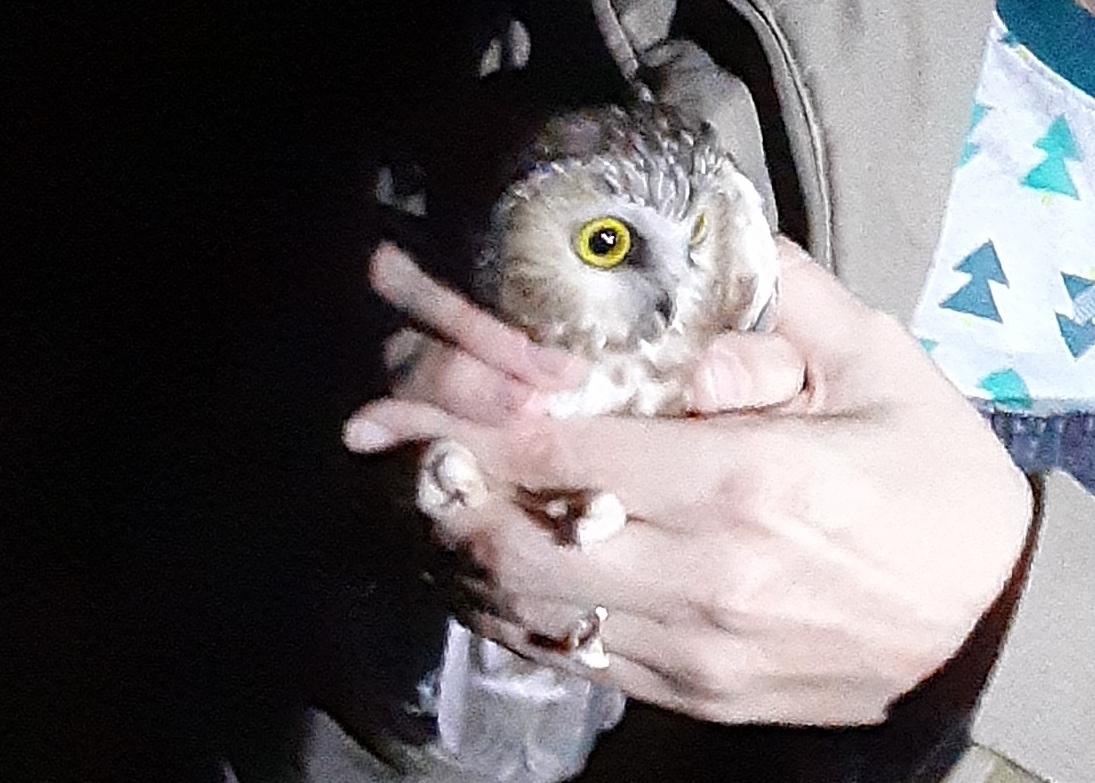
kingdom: Animalia
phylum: Chordata
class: Aves
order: Strigiformes
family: Strigidae
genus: Aegolius
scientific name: Aegolius acadicus
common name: Northern saw-whet owl
